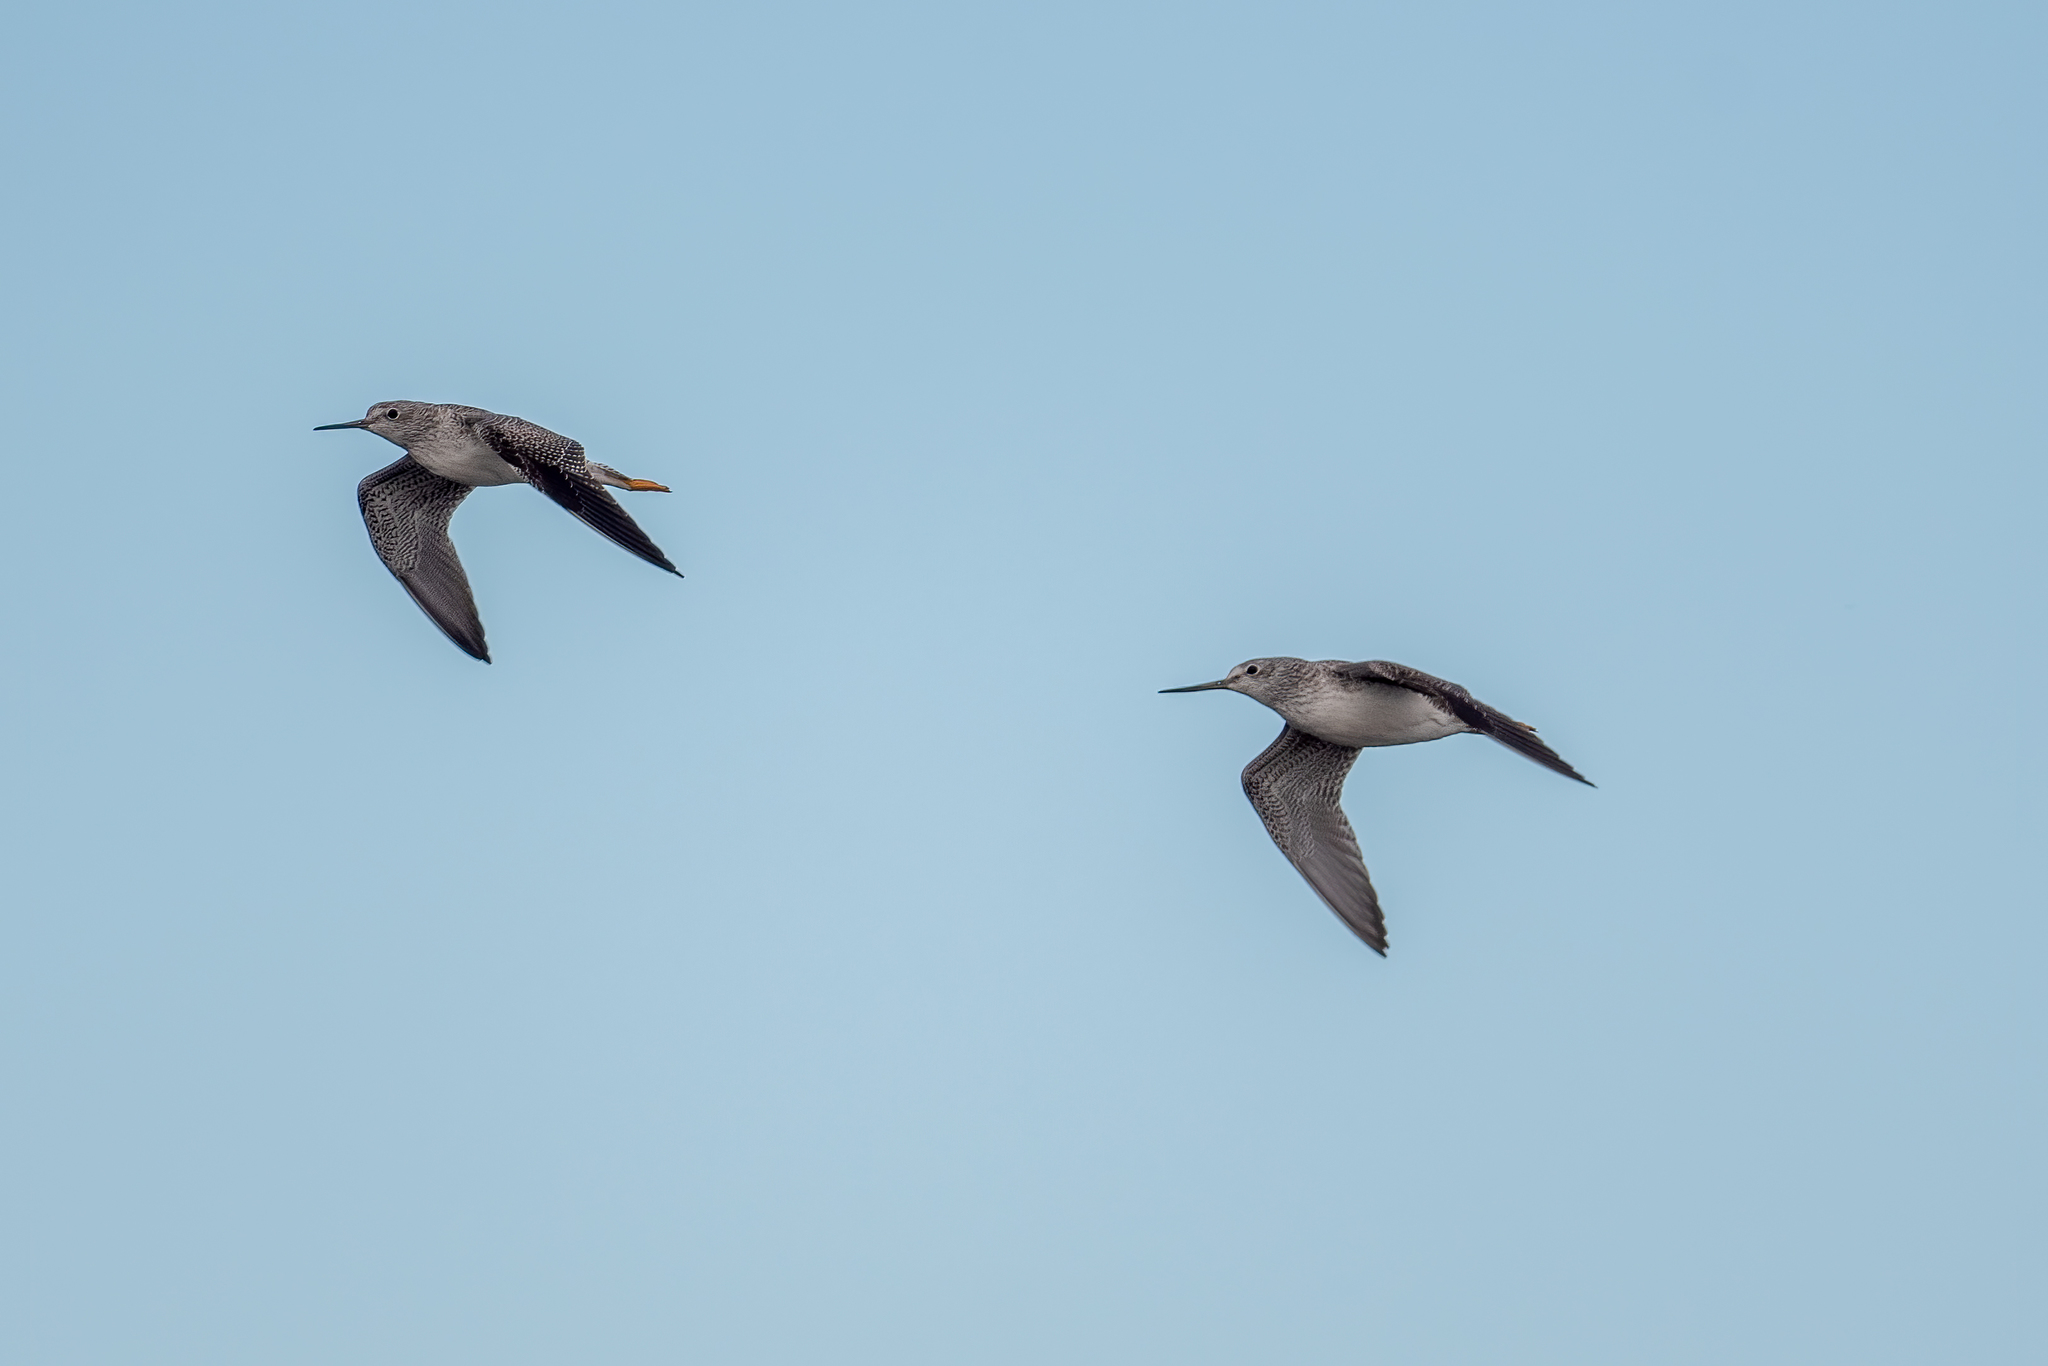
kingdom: Animalia
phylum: Chordata
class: Aves
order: Charadriiformes
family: Scolopacidae
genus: Tringa
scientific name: Tringa melanoleuca
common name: Greater yellowlegs
